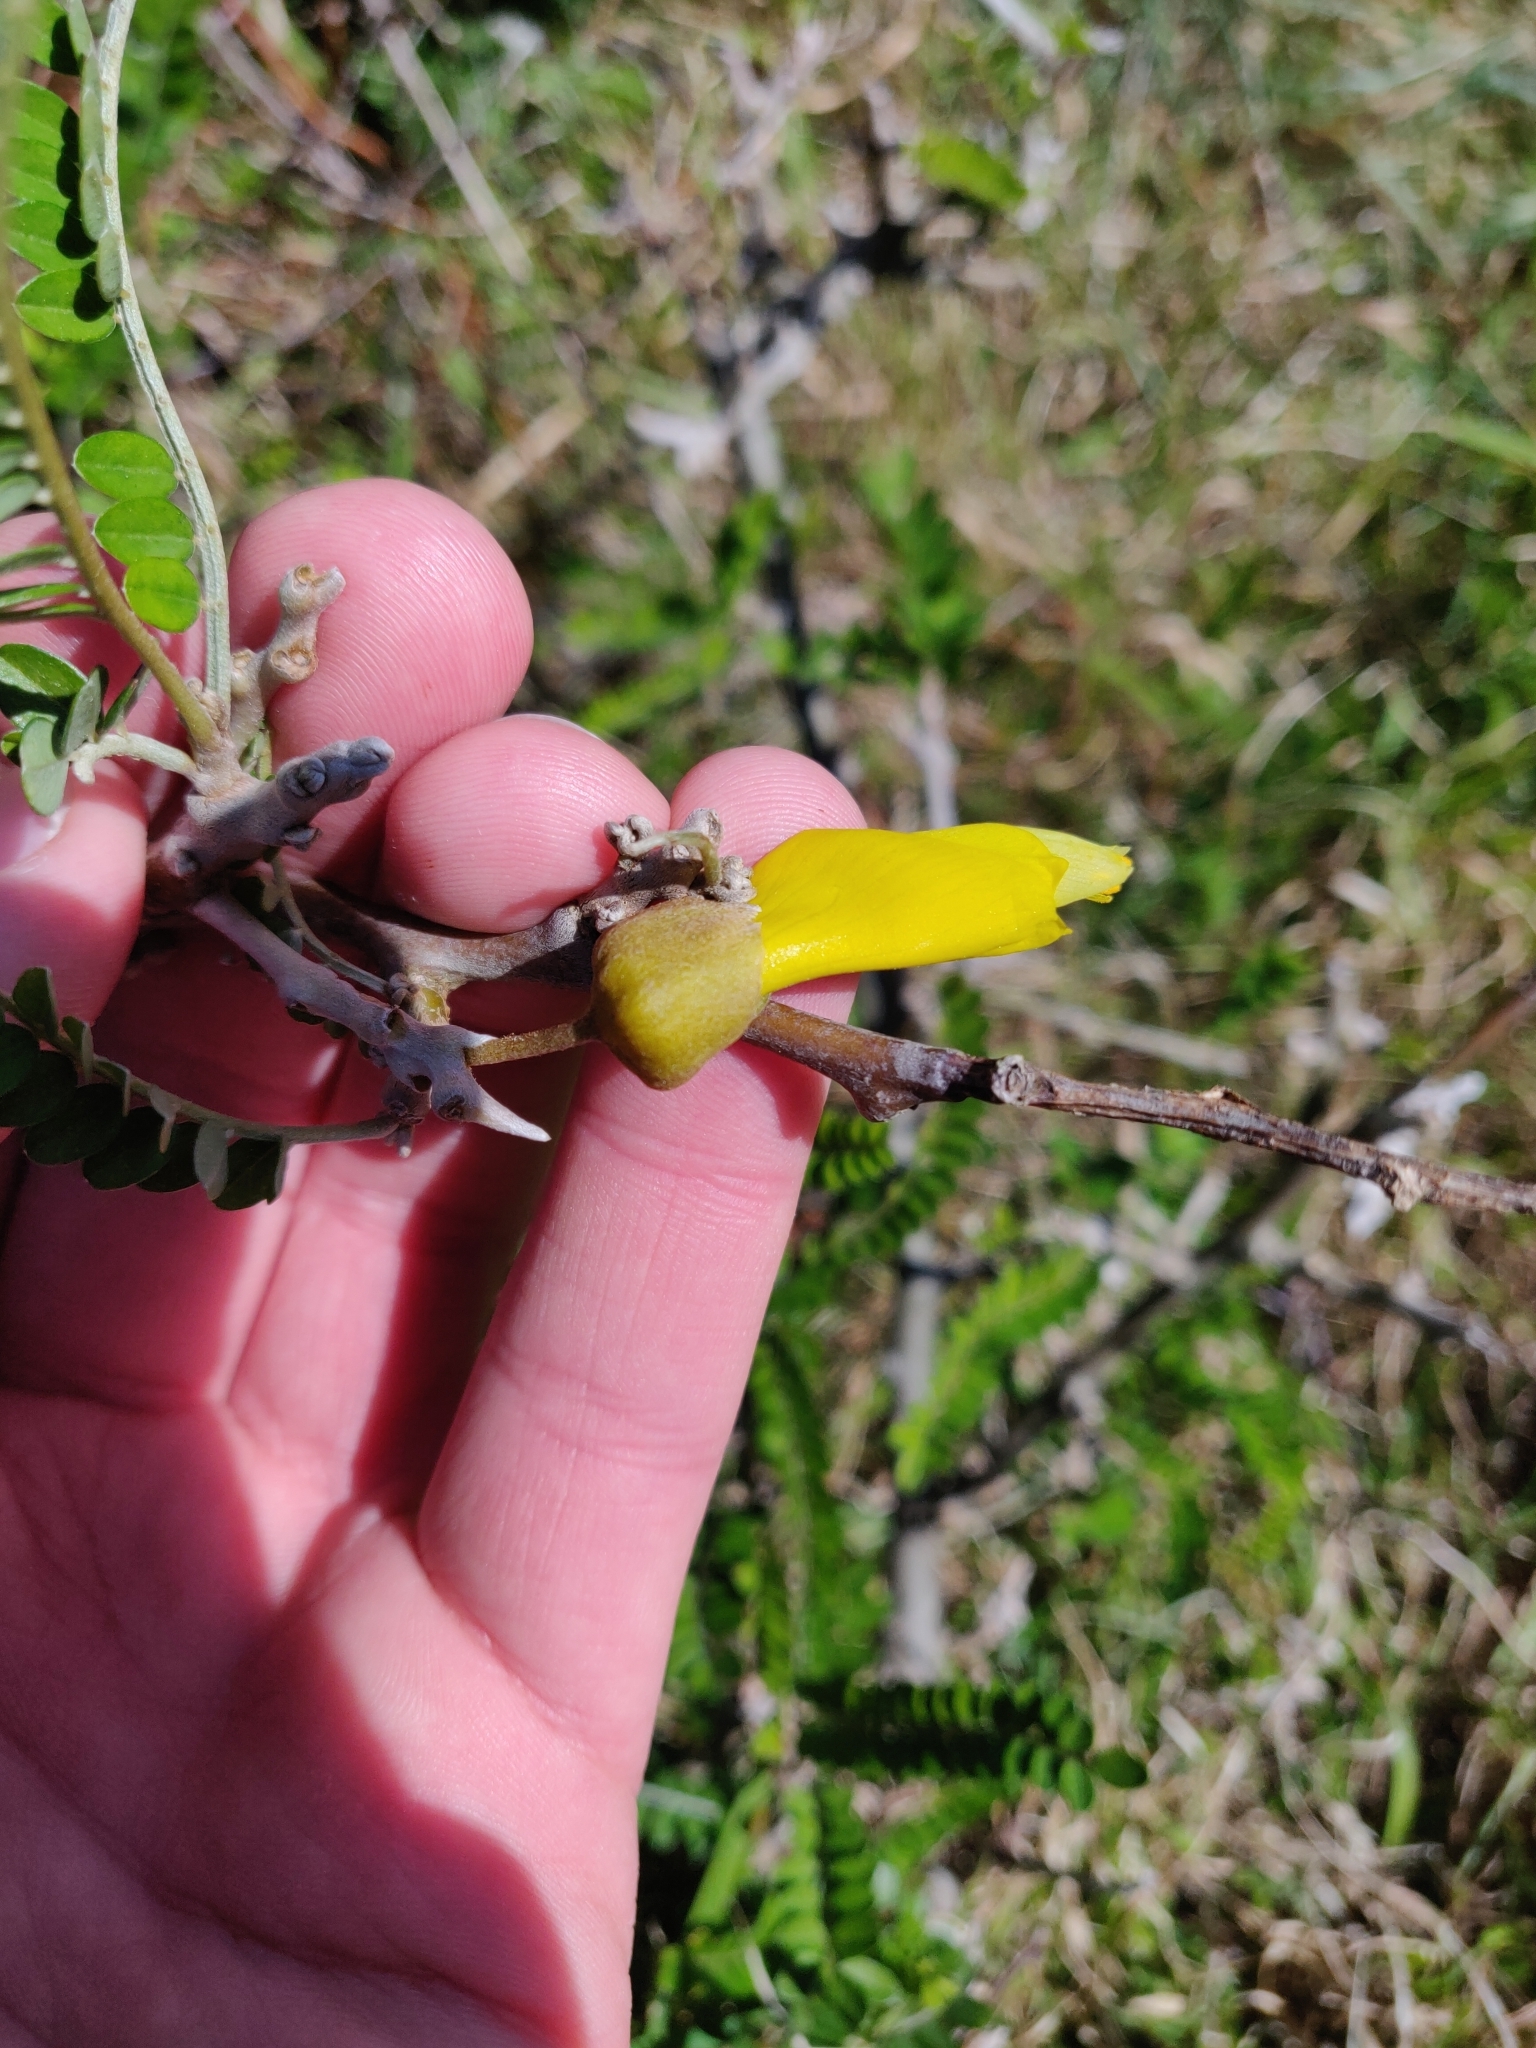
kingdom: Plantae
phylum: Tracheophyta
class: Magnoliopsida
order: Fabales
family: Fabaceae
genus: Sophora
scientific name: Sophora molloyi
